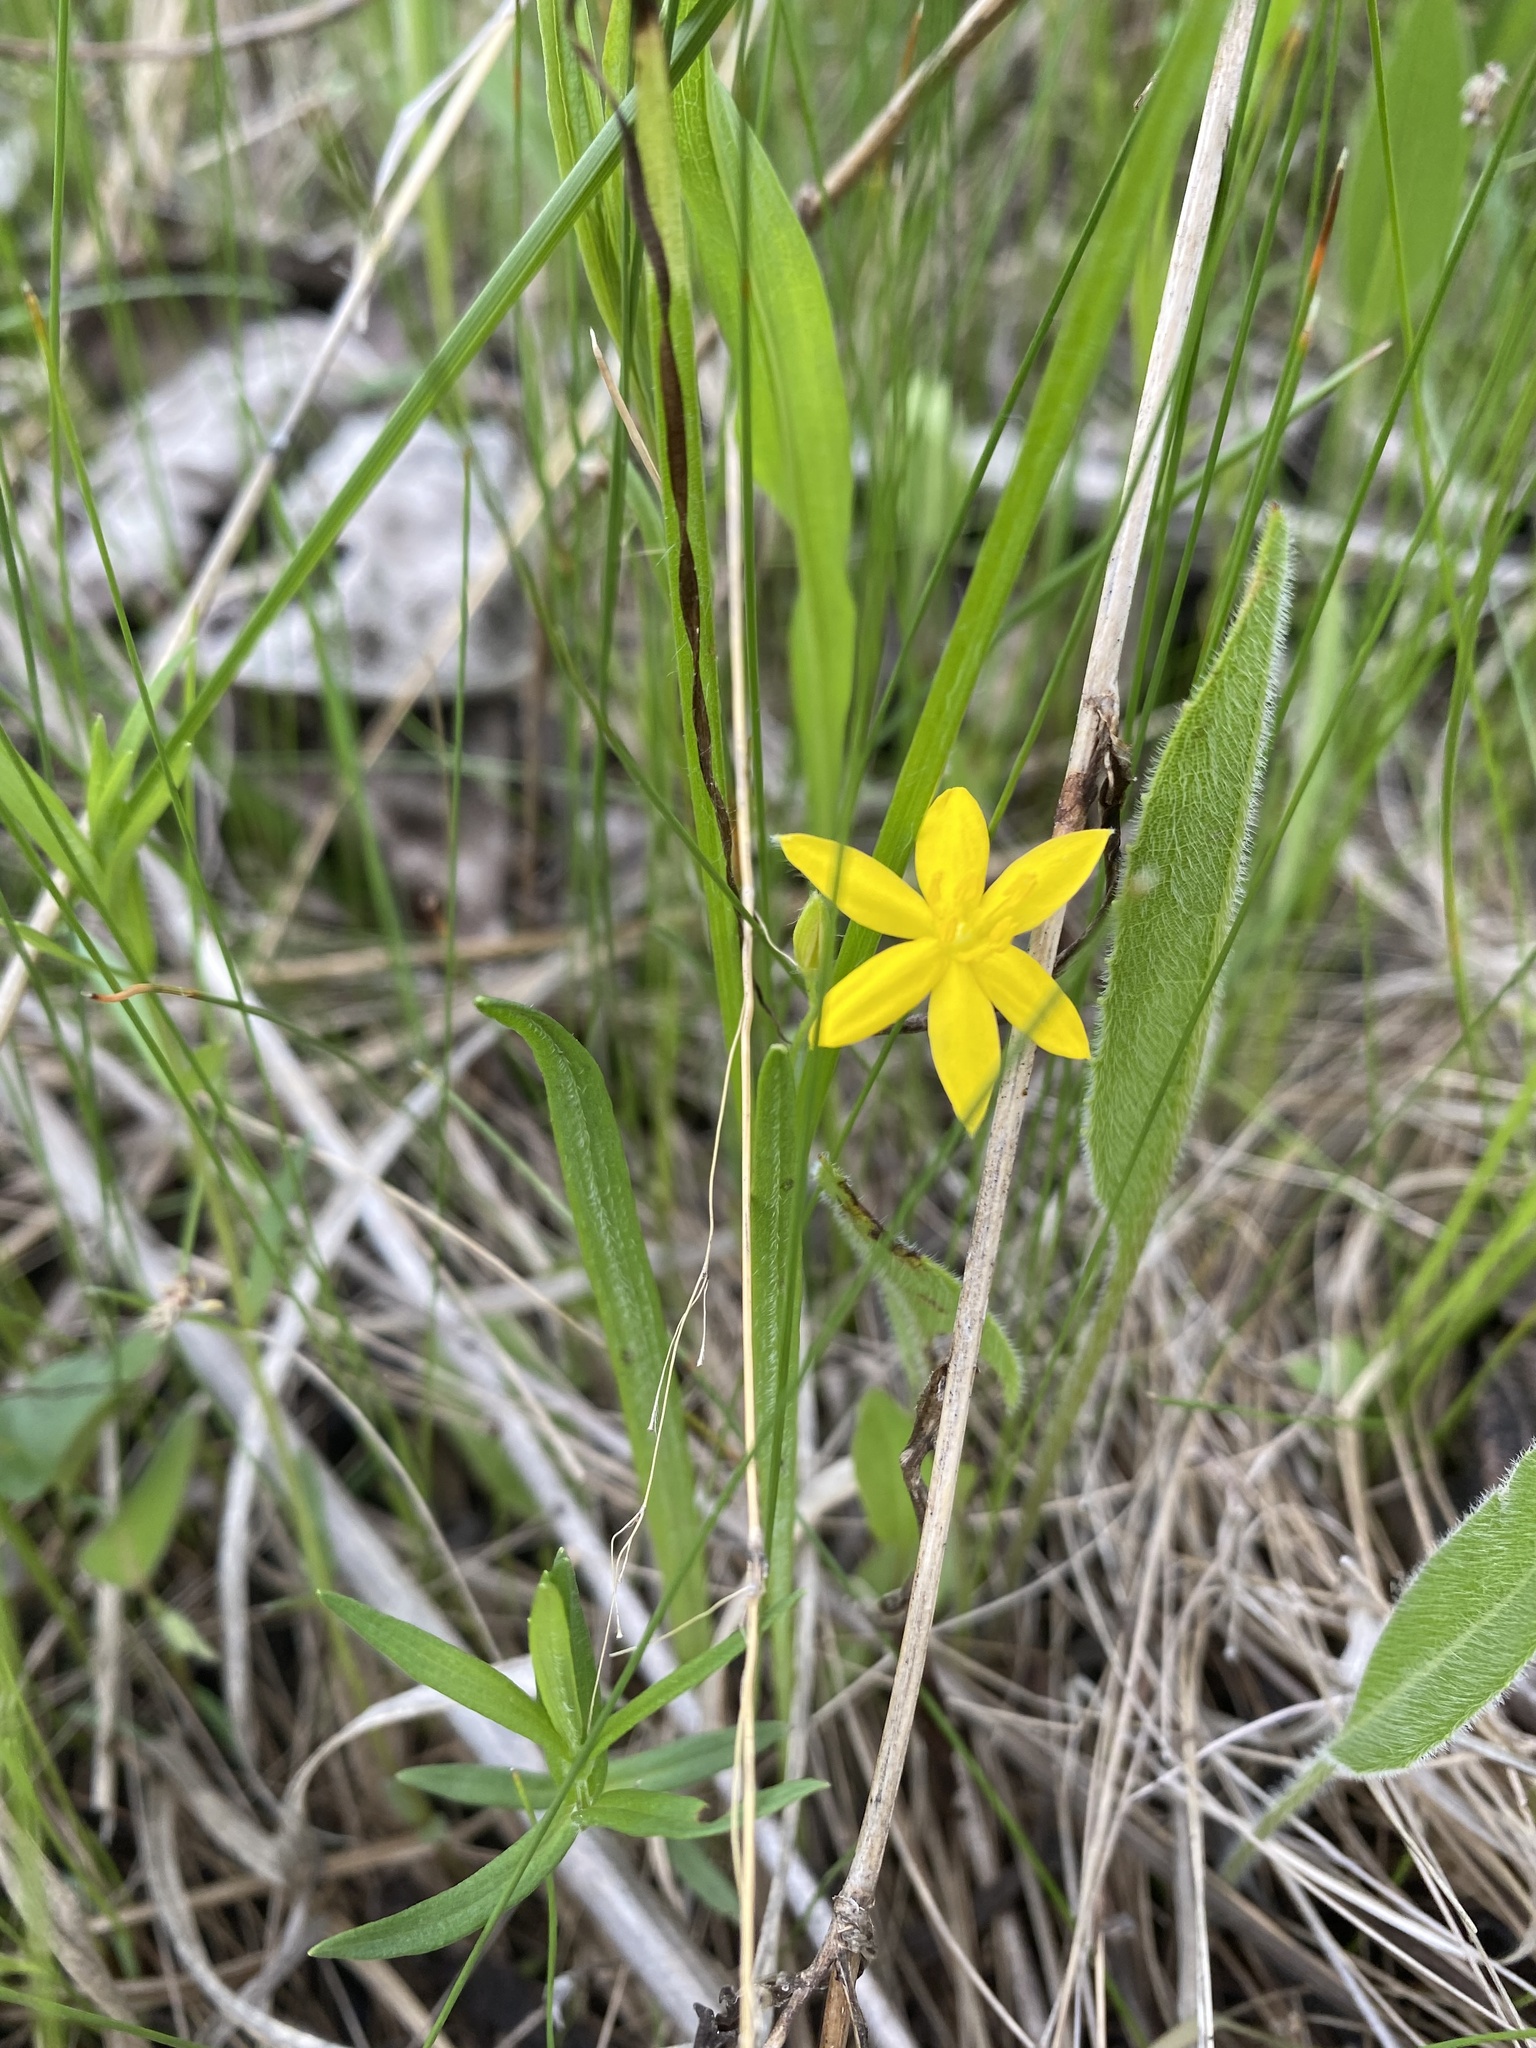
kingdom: Plantae
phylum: Tracheophyta
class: Liliopsida
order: Asparagales
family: Hypoxidaceae
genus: Hypoxis
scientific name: Hypoxis hirsuta
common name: Common goldstar
